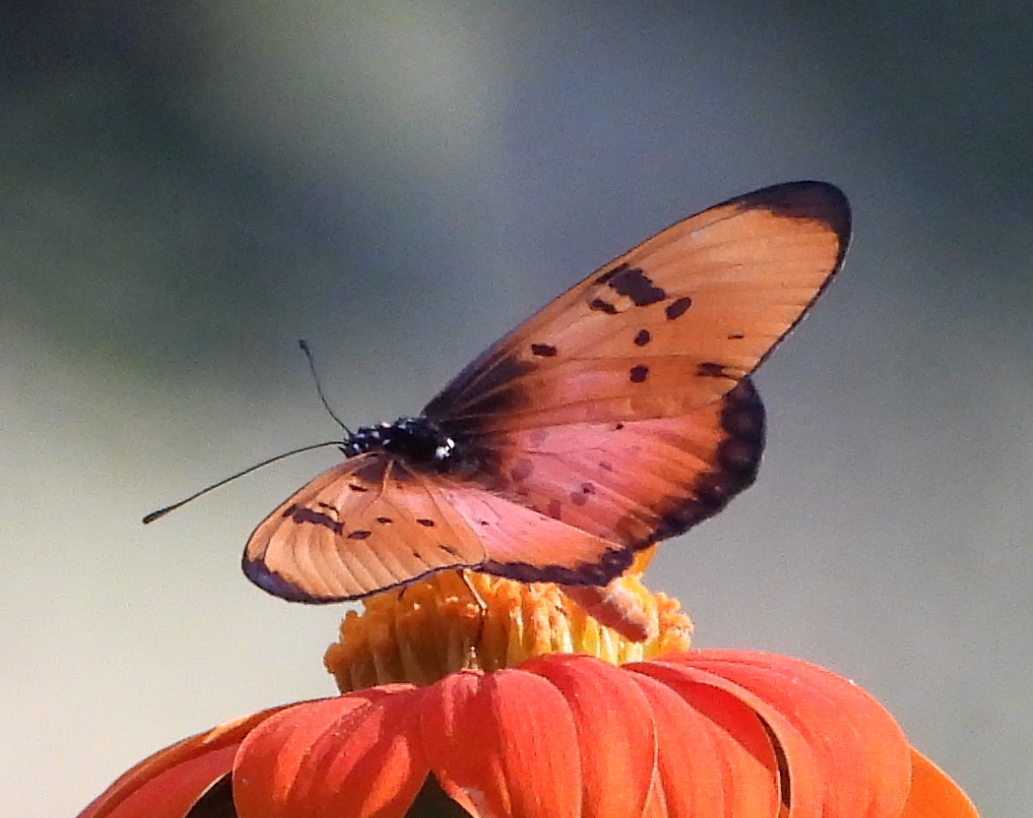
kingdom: Animalia
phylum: Arthropoda
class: Insecta
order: Lepidoptera
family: Nymphalidae
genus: Stephenia
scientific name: Stephenia
